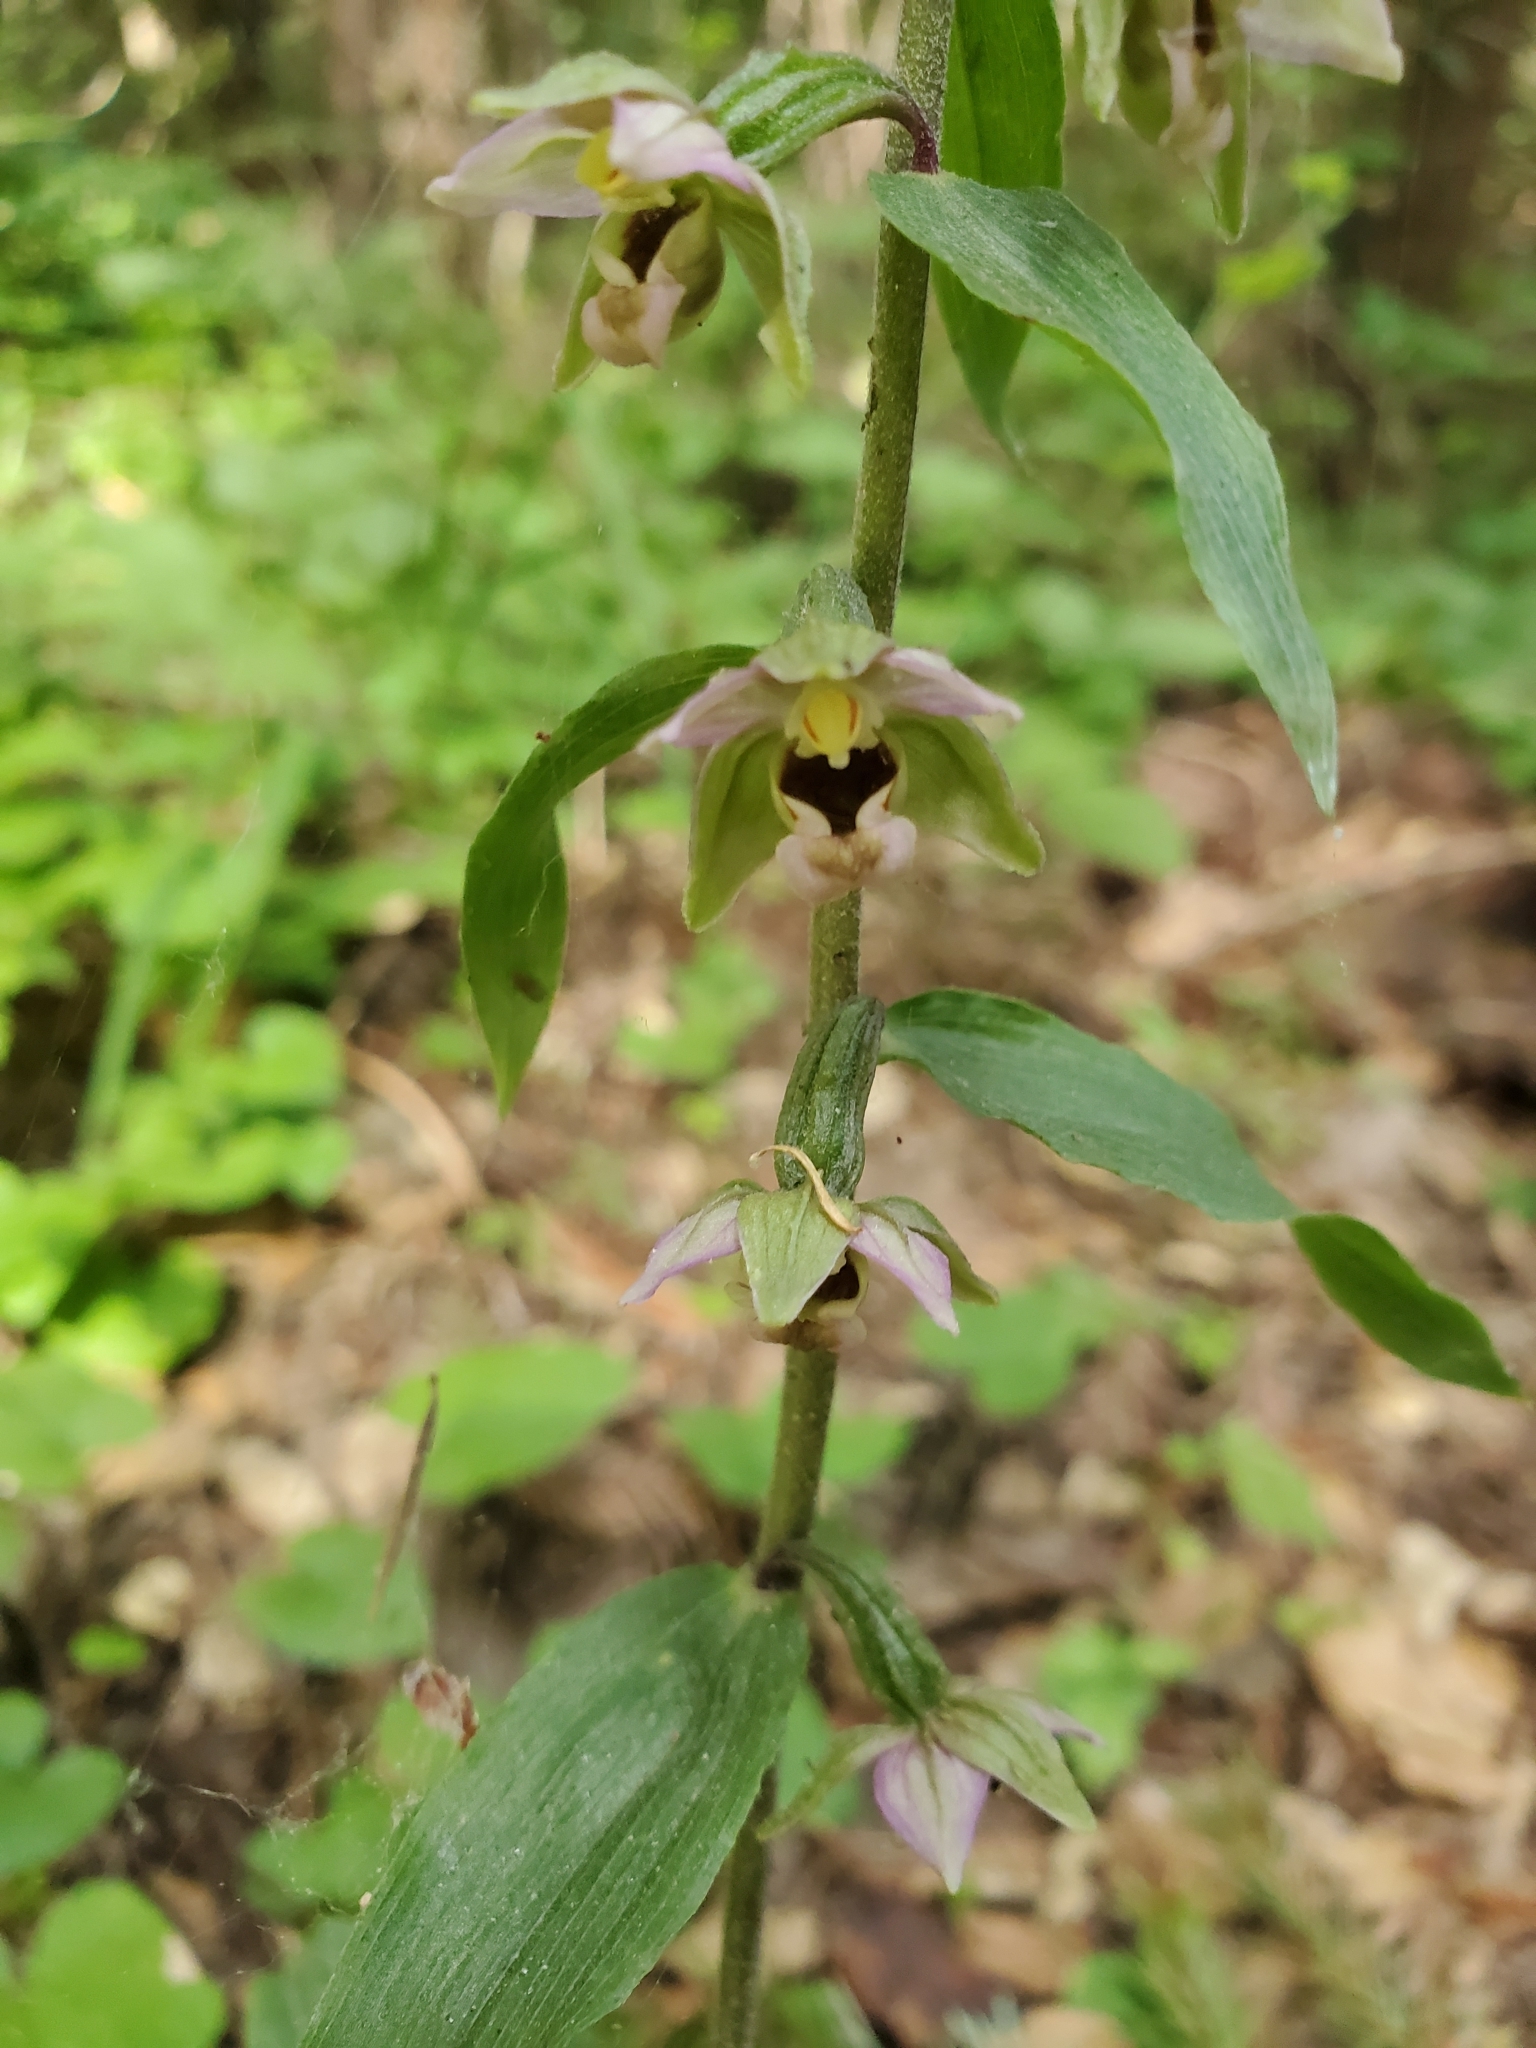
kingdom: Plantae
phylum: Tracheophyta
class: Liliopsida
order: Asparagales
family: Orchidaceae
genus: Epipactis
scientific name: Epipactis helleborine
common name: Broad-leaved helleborine
